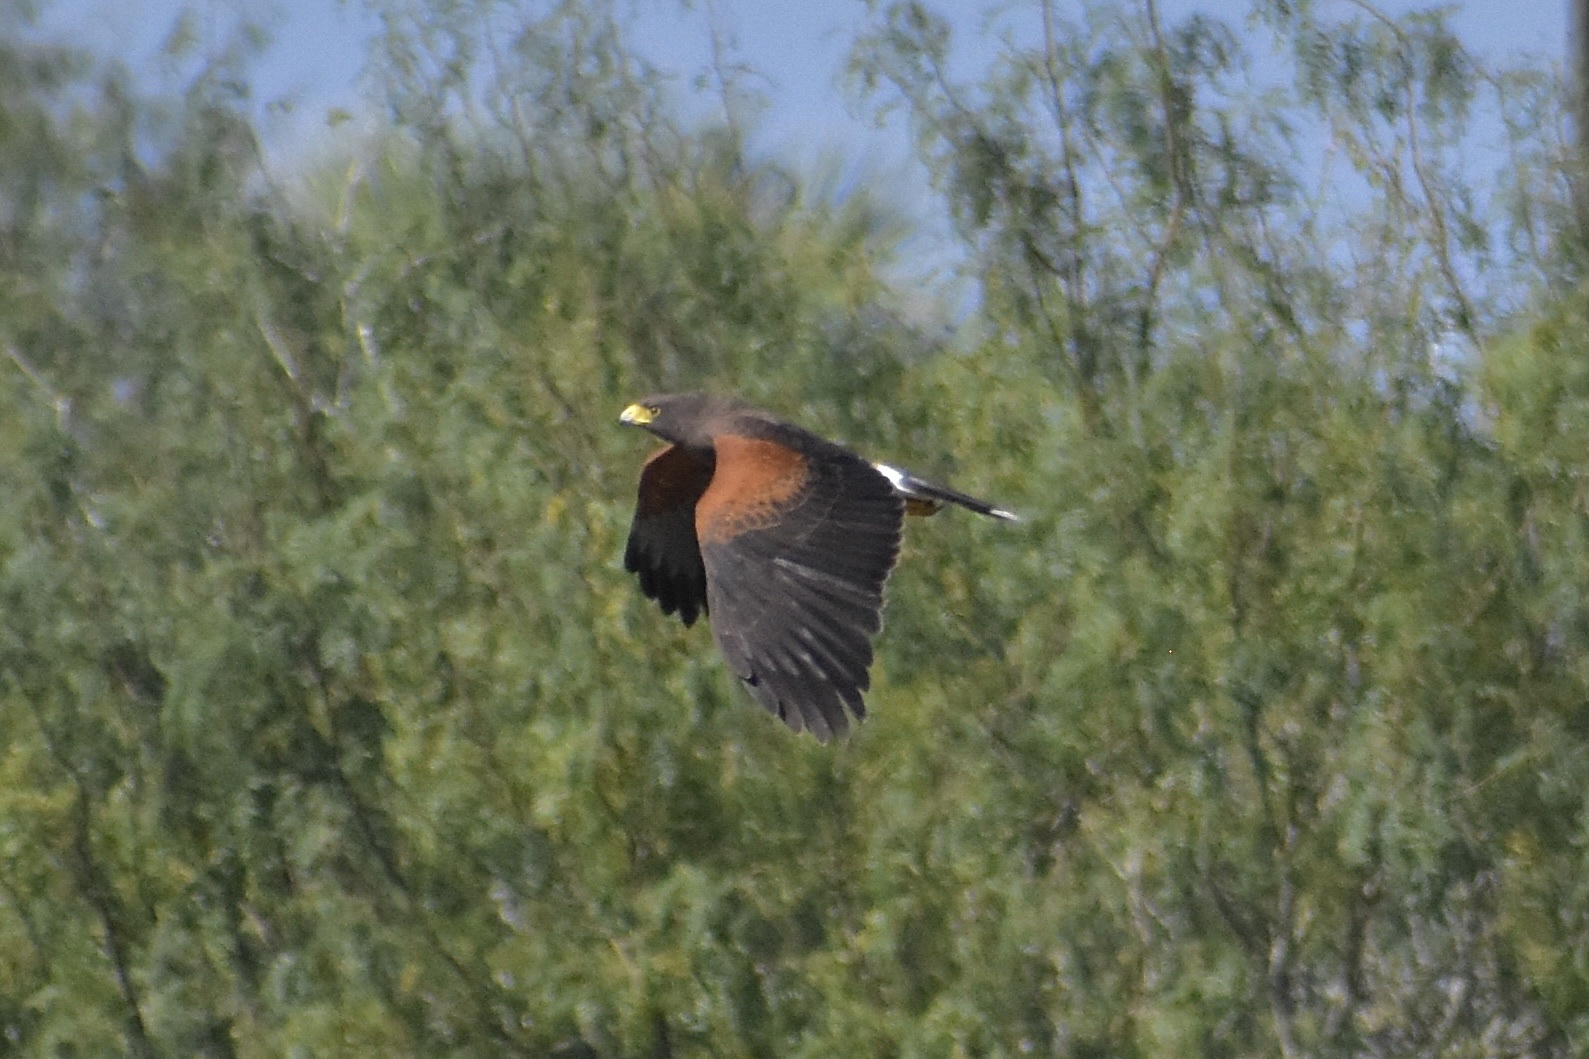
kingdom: Animalia
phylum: Chordata
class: Aves
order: Accipitriformes
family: Accipitridae
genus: Parabuteo
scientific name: Parabuteo unicinctus
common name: Harris's hawk
